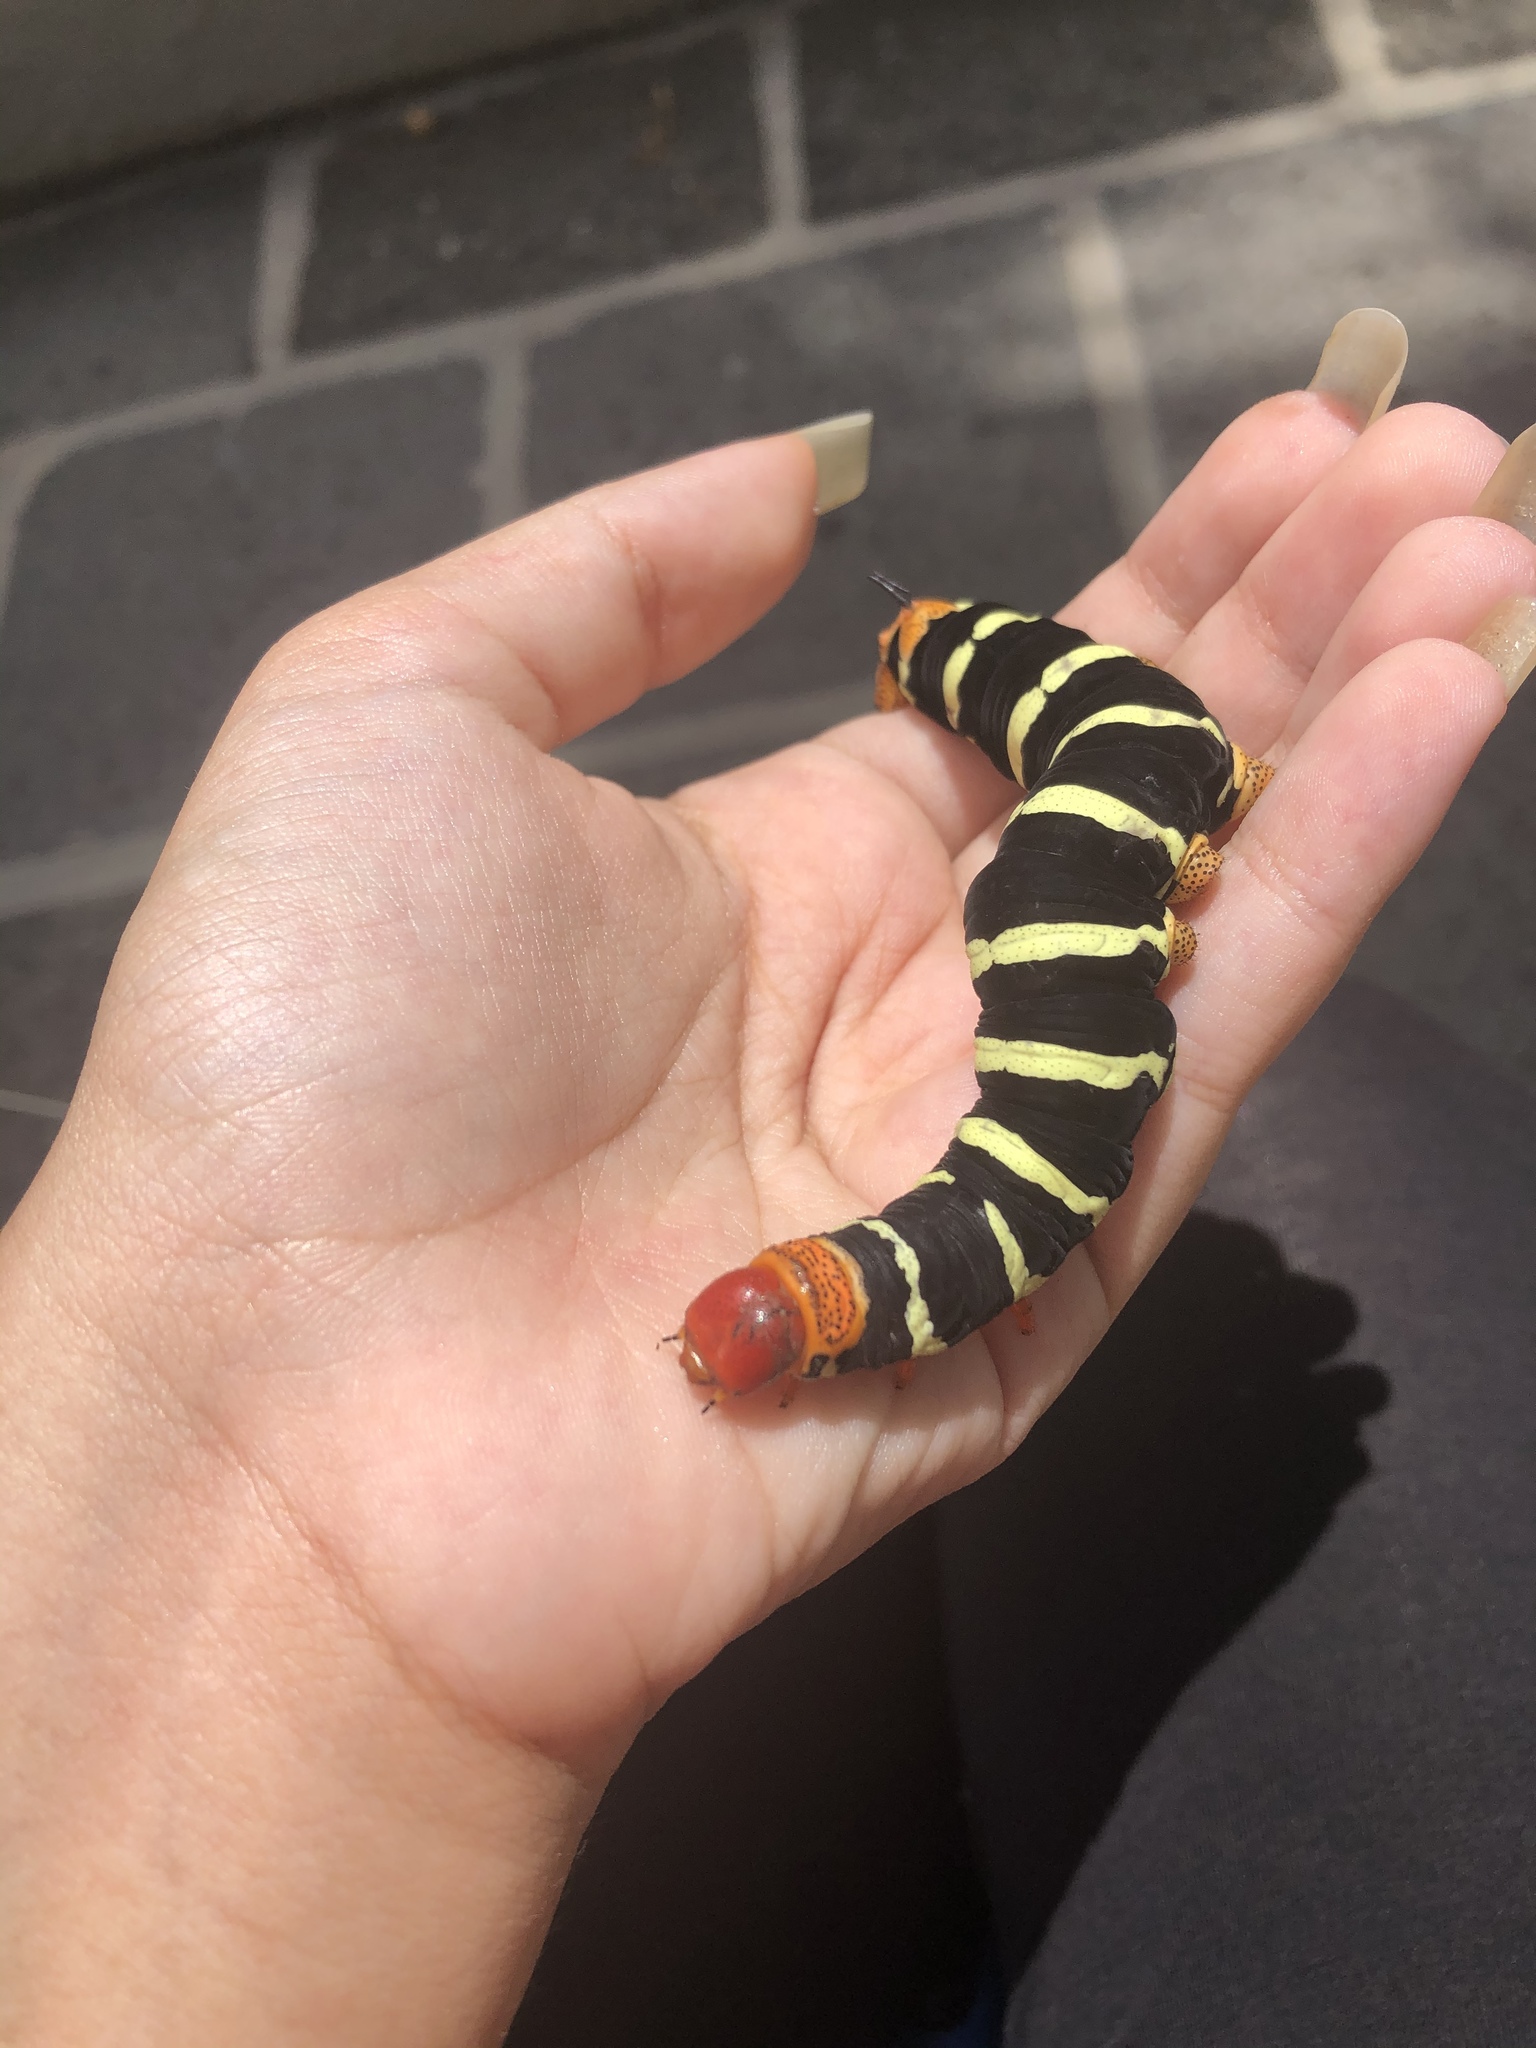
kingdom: Animalia
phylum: Arthropoda
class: Insecta
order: Lepidoptera
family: Sphingidae
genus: Pseudosphinx
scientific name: Pseudosphinx tetrio
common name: Tetrio sphinx
